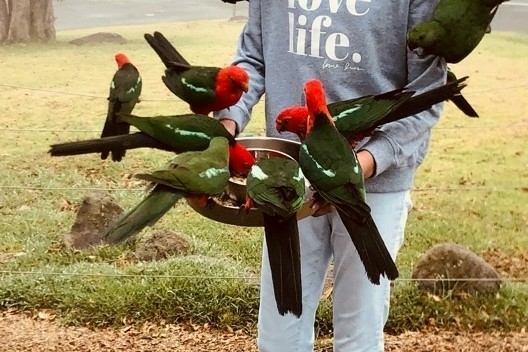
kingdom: Animalia
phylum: Chordata
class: Aves
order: Psittaciformes
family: Psittacidae
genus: Alisterus
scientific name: Alisterus scapularis
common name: Australian king parrot
